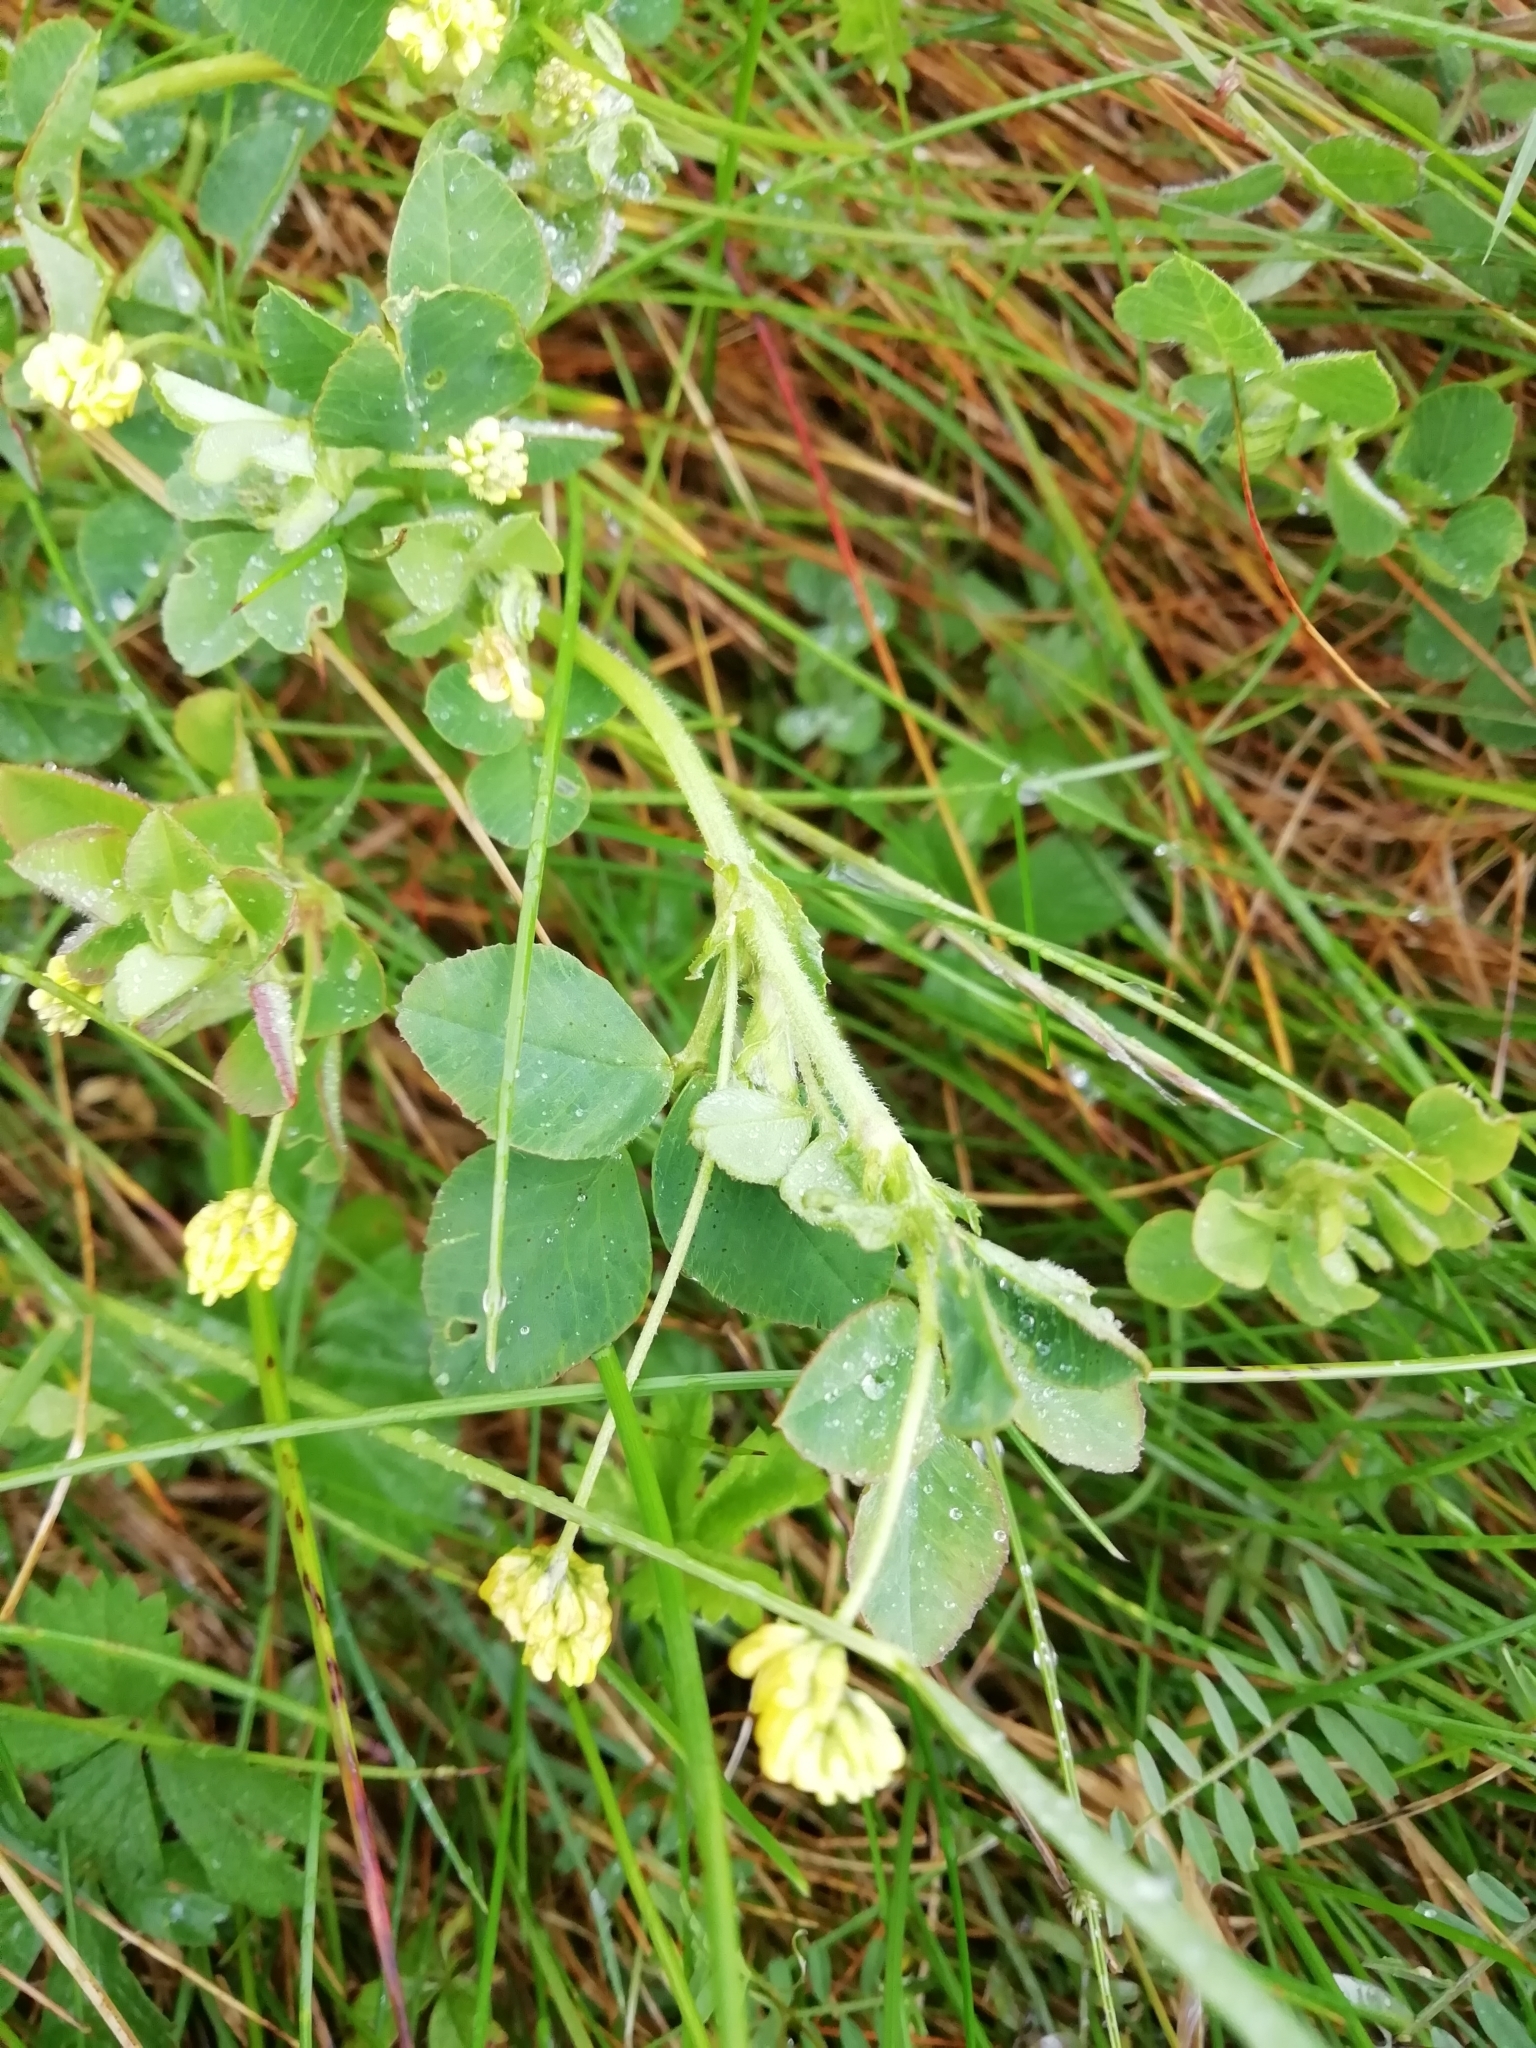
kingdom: Plantae
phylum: Tracheophyta
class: Magnoliopsida
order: Fabales
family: Fabaceae
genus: Medicago
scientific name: Medicago lupulina
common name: Black medick
